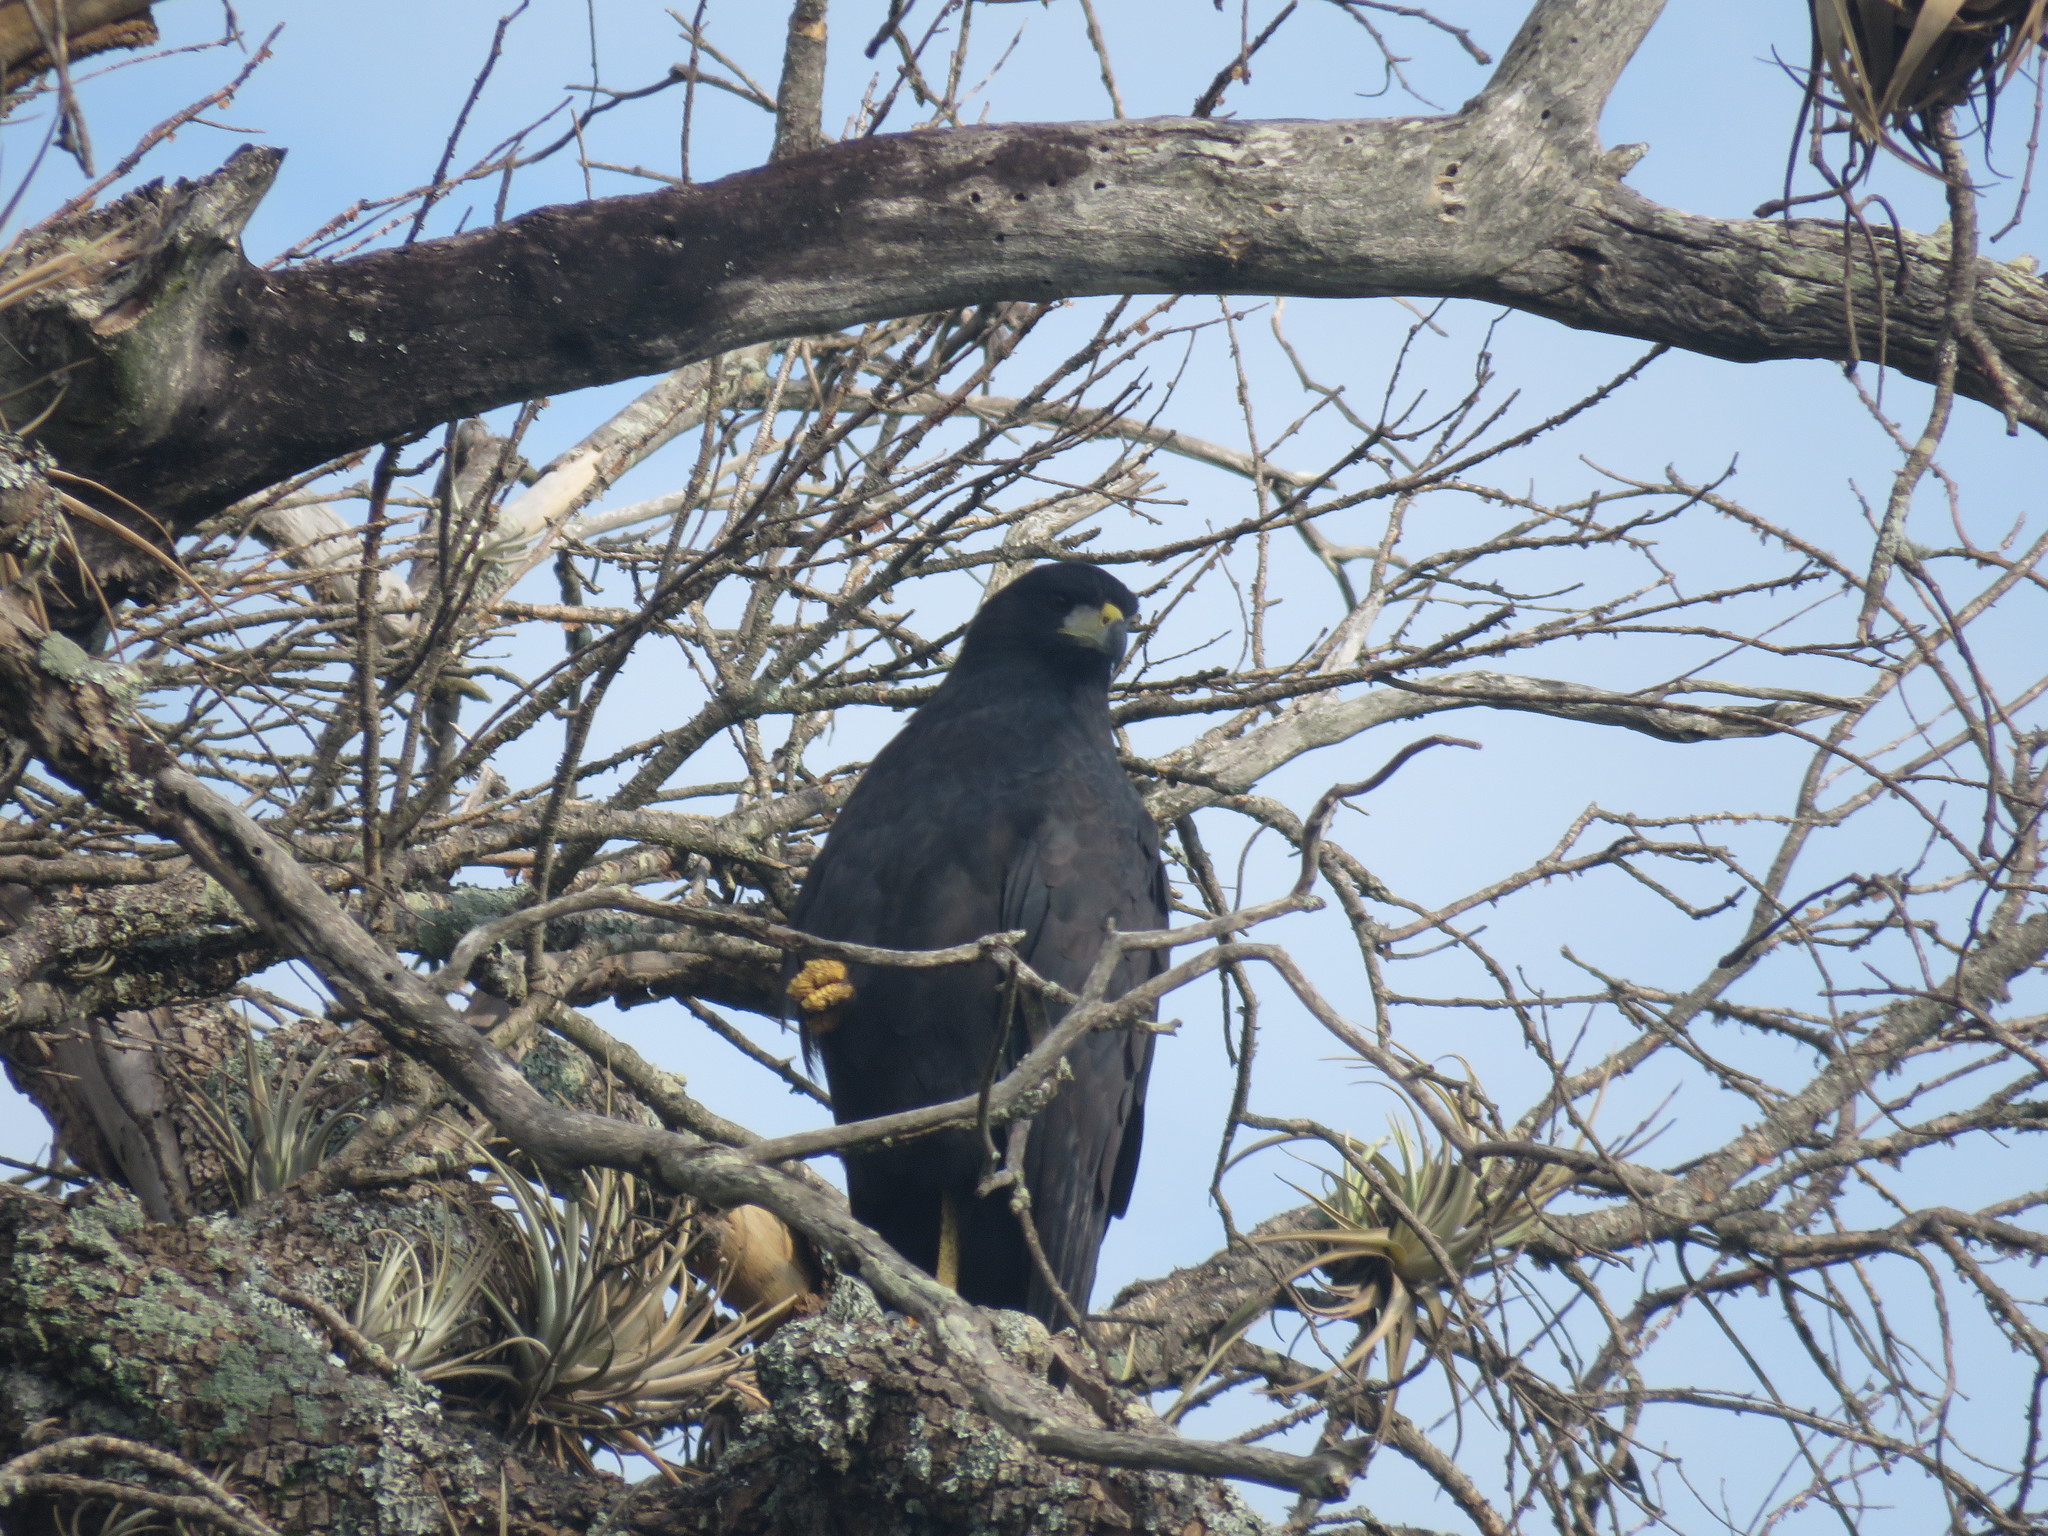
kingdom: Animalia
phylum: Chordata
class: Aves
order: Accipitriformes
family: Accipitridae
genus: Buteogallus
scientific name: Buteogallus urubitinga
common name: Great black hawk
